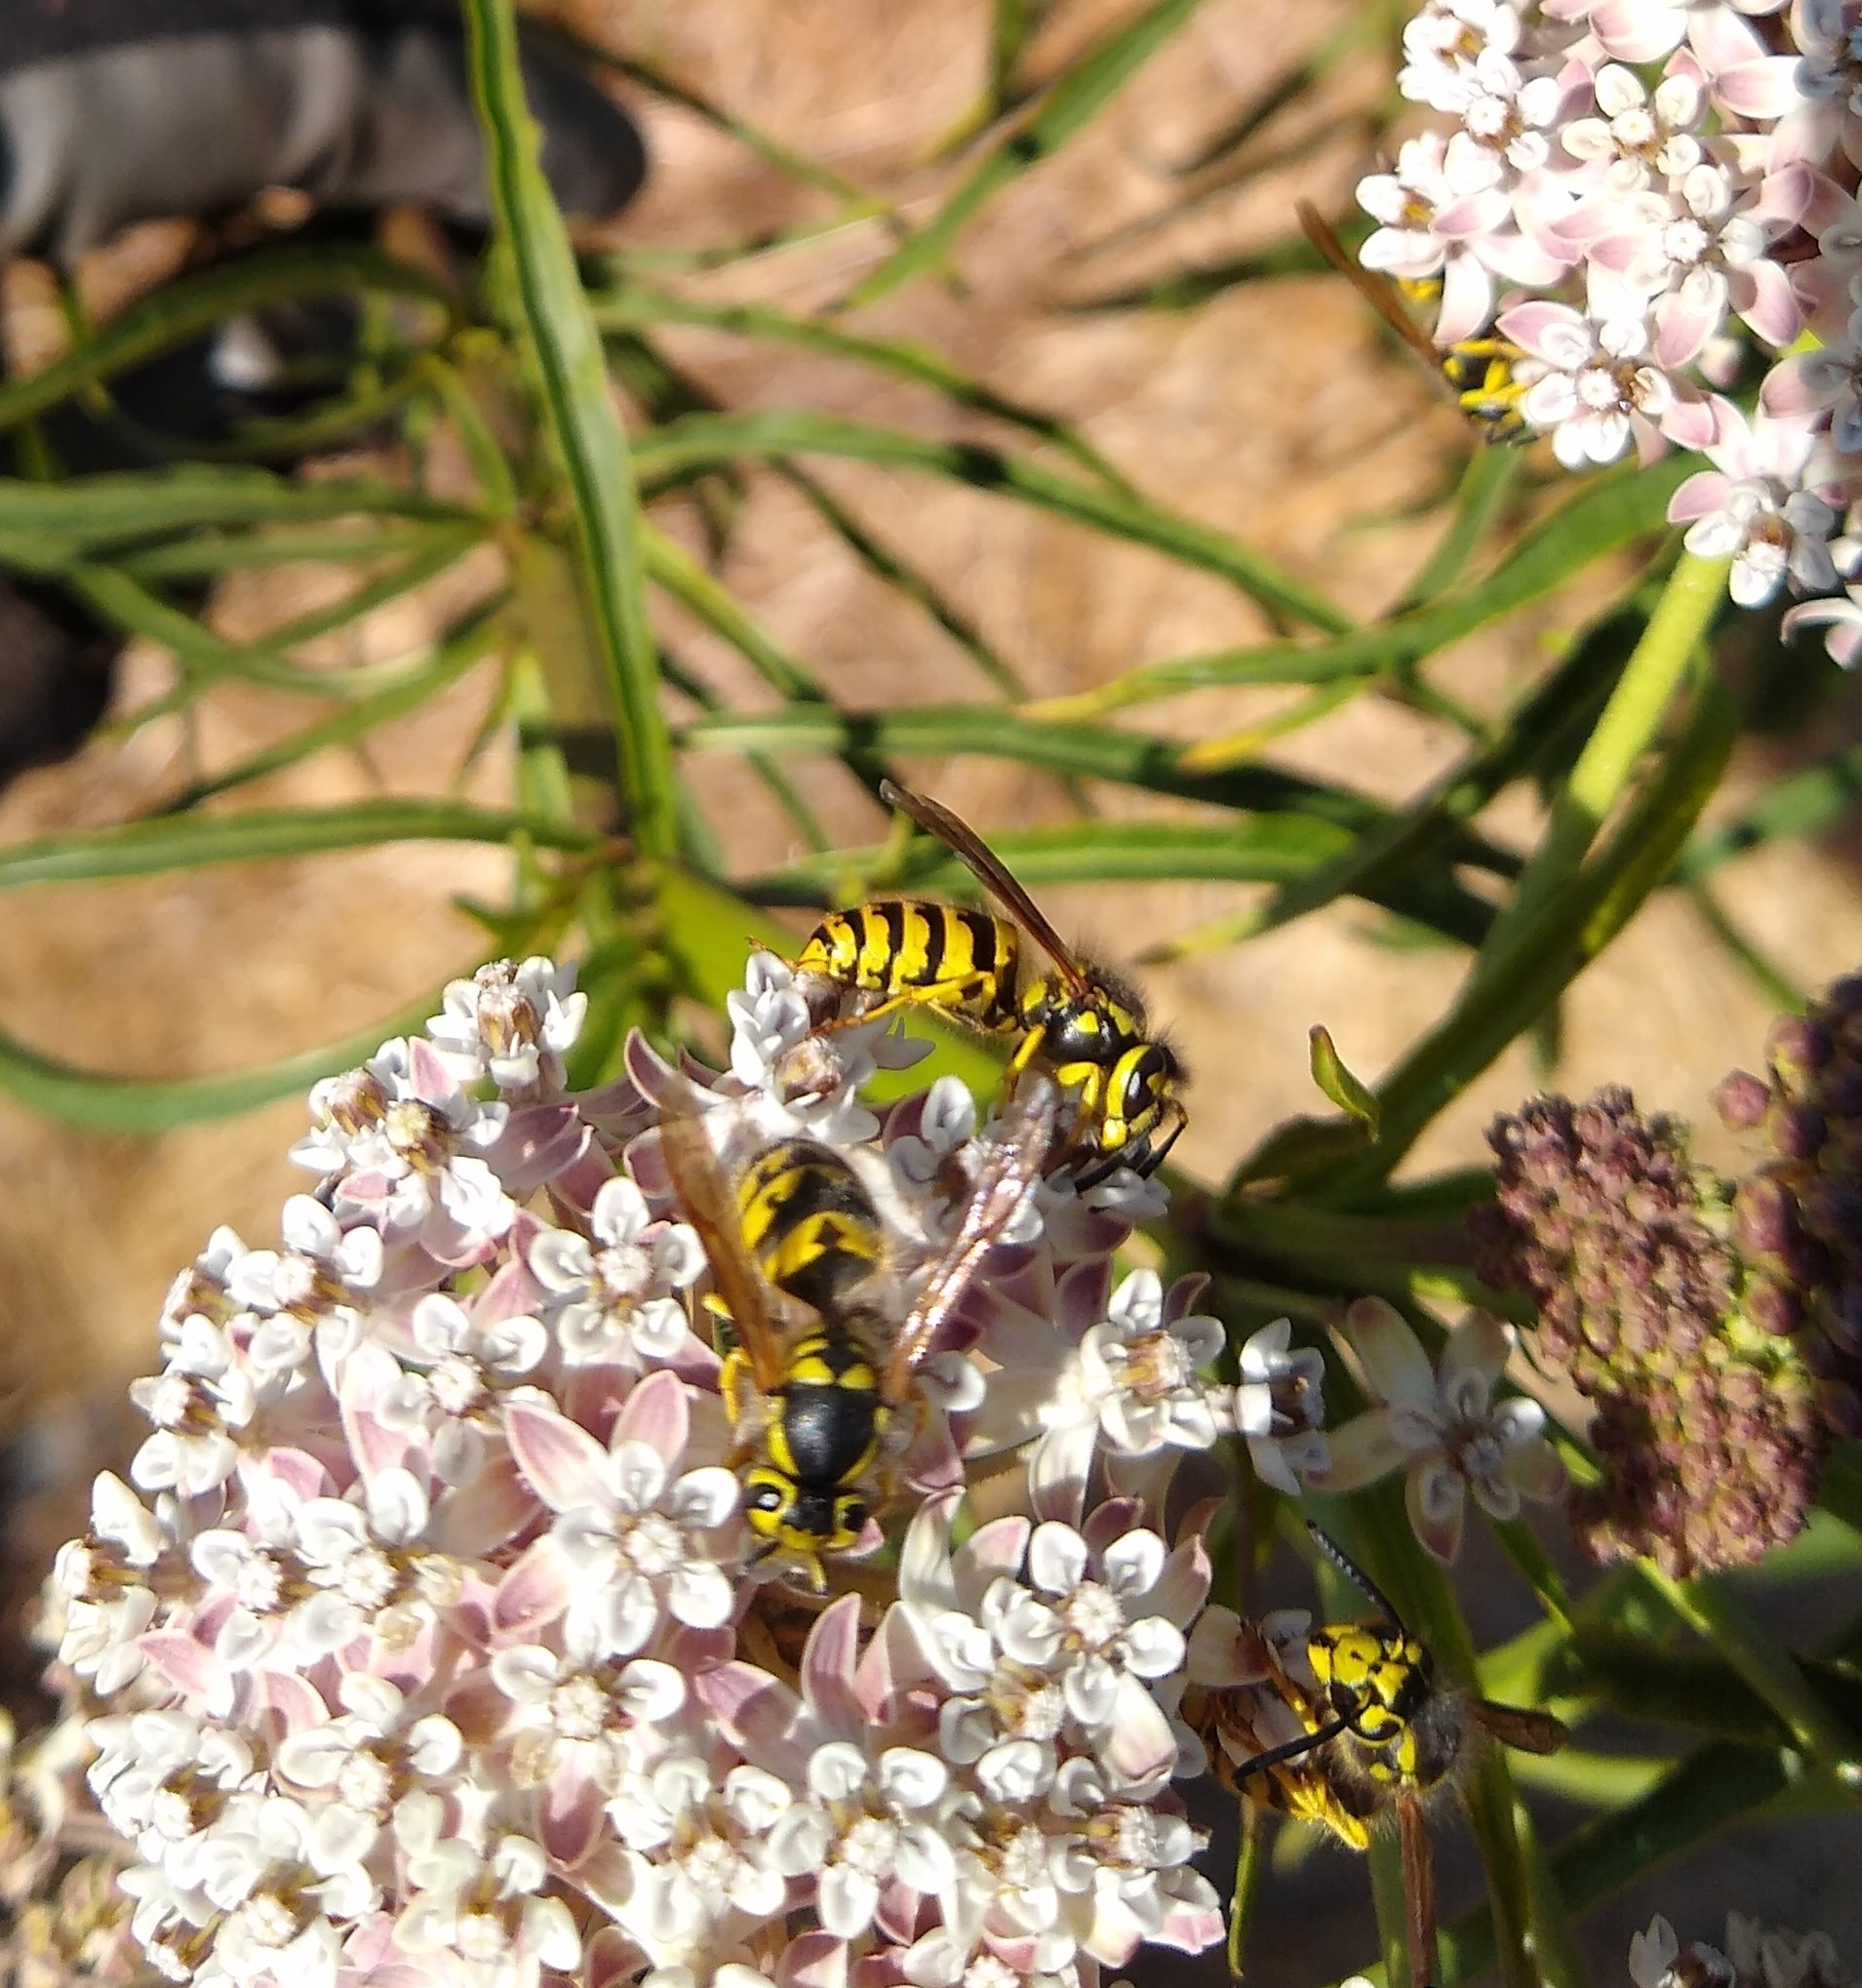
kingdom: Animalia
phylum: Arthropoda
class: Insecta
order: Hymenoptera
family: Vespidae
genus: Vespula
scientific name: Vespula pensylvanica
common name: Western yellowjacket
